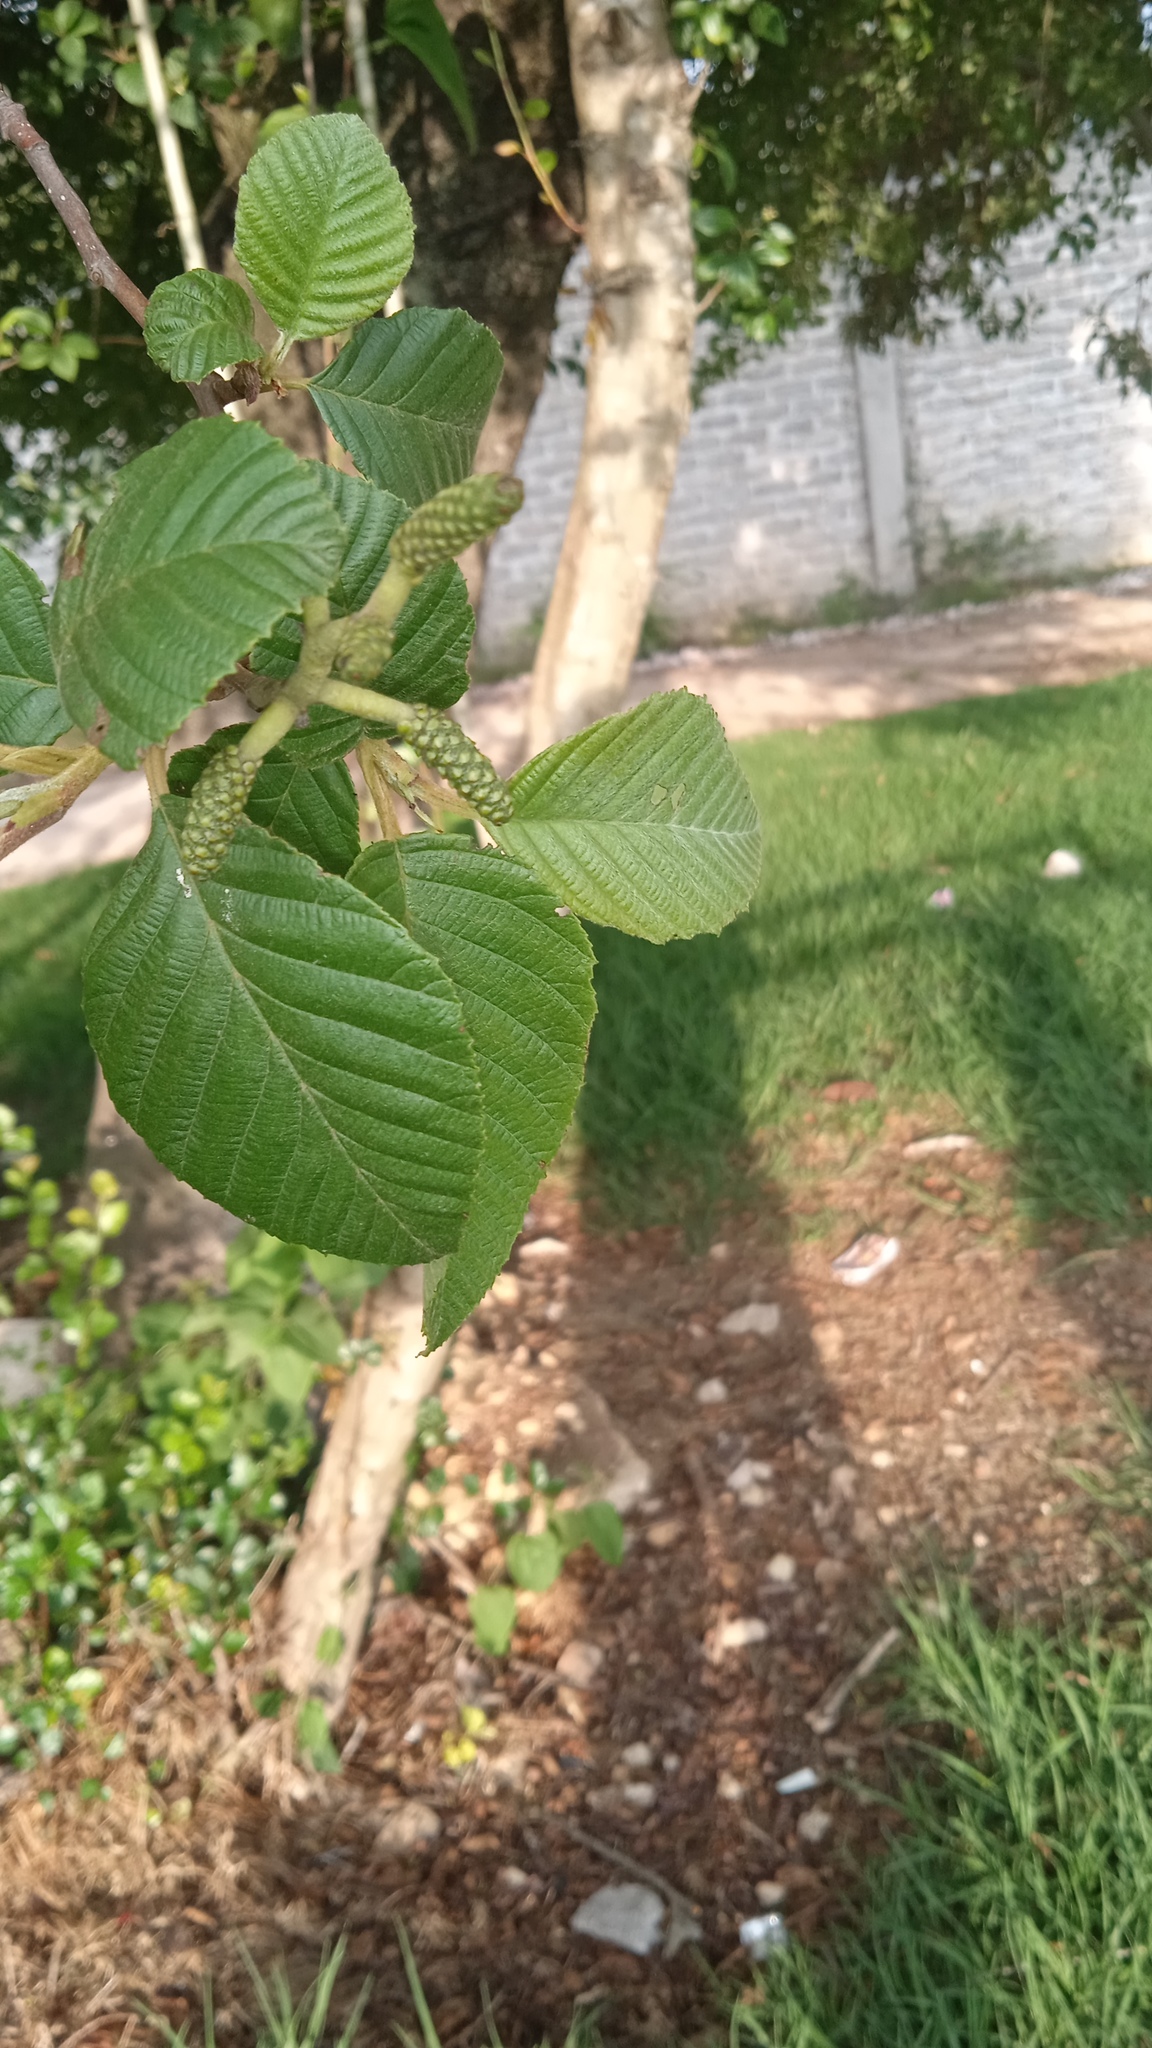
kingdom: Plantae
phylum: Tracheophyta
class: Magnoliopsida
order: Fagales
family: Betulaceae
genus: Alnus
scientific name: Alnus acuminata
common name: Alder
